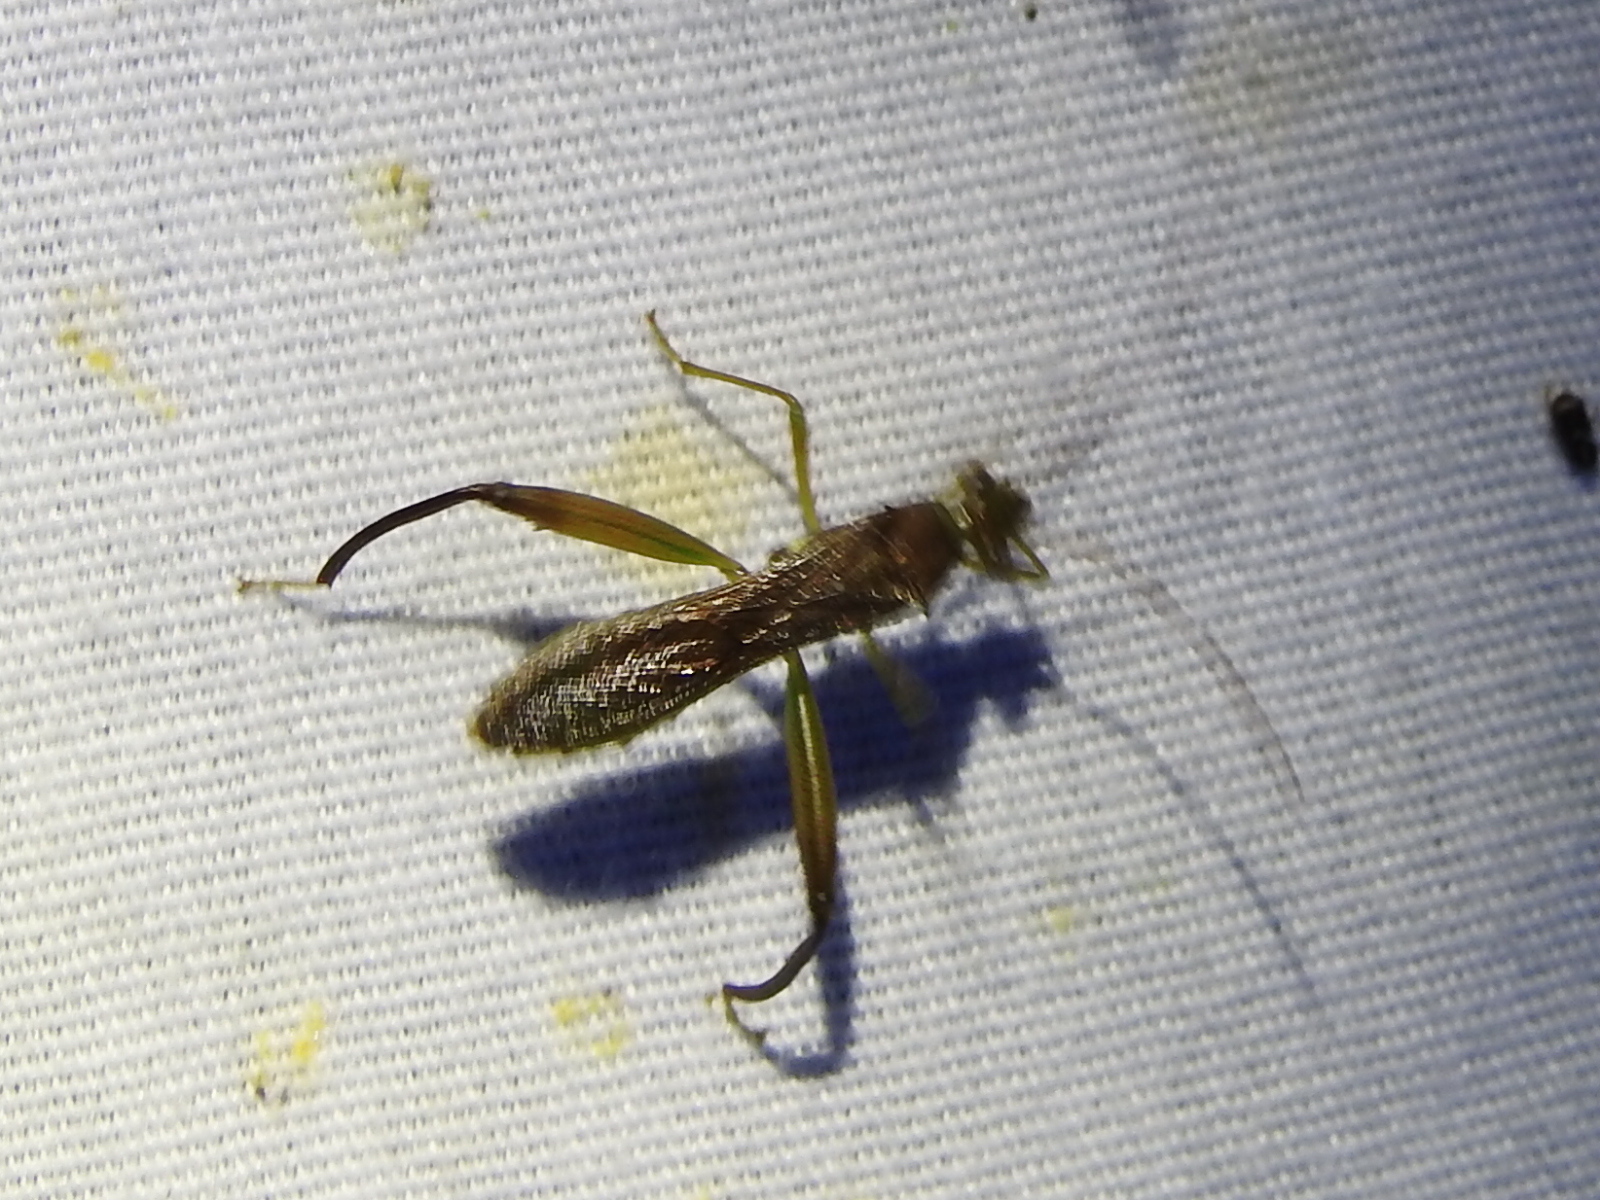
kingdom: Animalia
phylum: Arthropoda
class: Insecta
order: Hemiptera
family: Alydidae
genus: Hyalymenus
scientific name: Hyalymenus tarsatus
